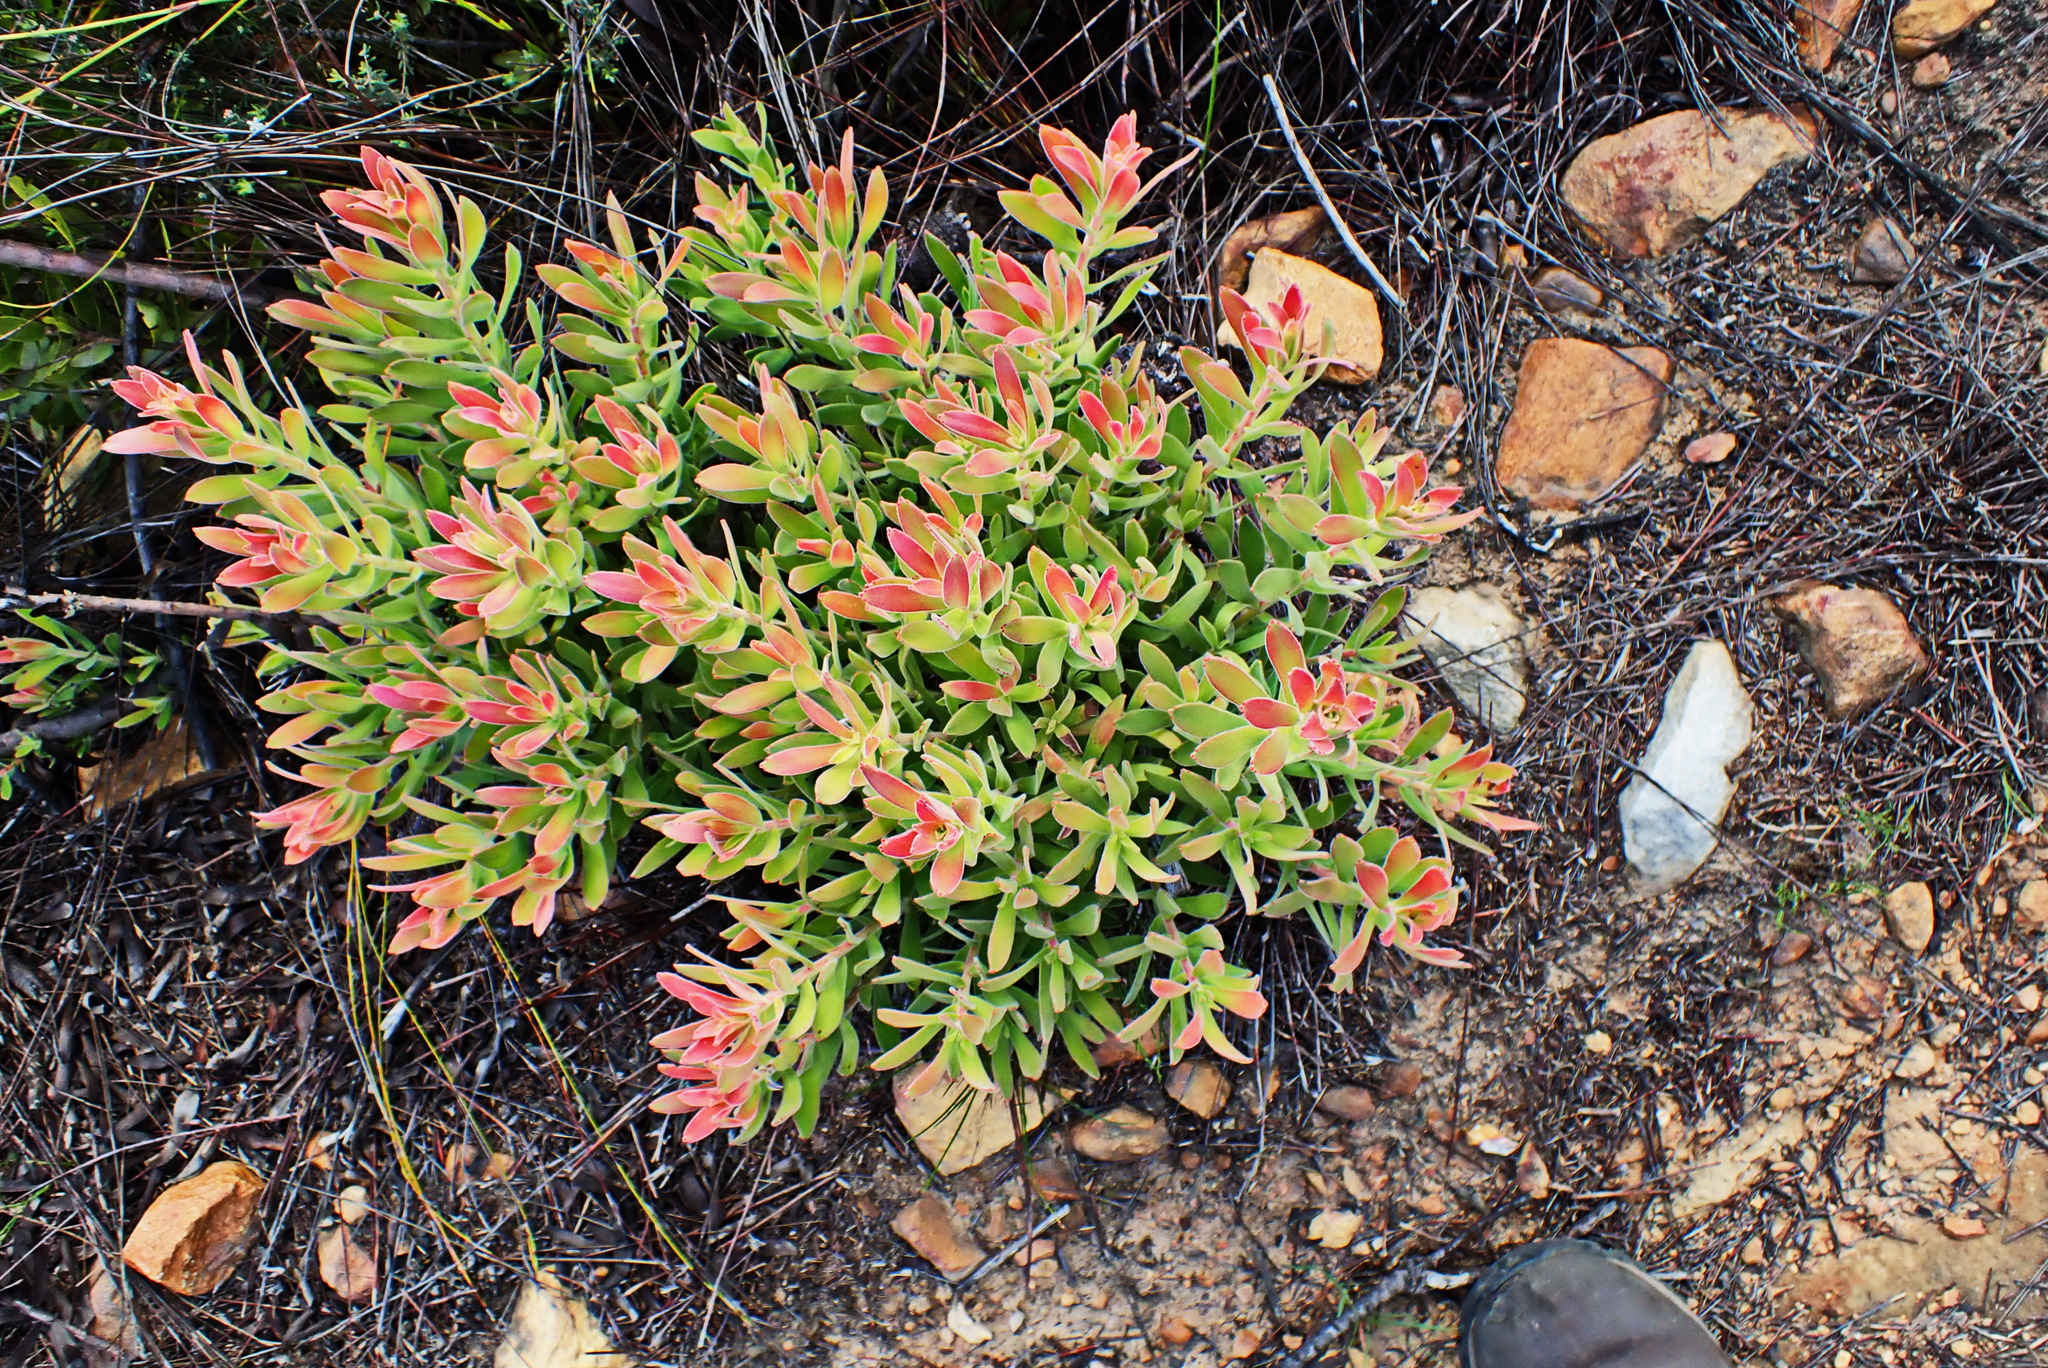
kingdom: Plantae
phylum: Tracheophyta
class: Magnoliopsida
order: Proteales
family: Proteaceae
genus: Mimetes
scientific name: Mimetes cucullatus
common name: Common pagoda
